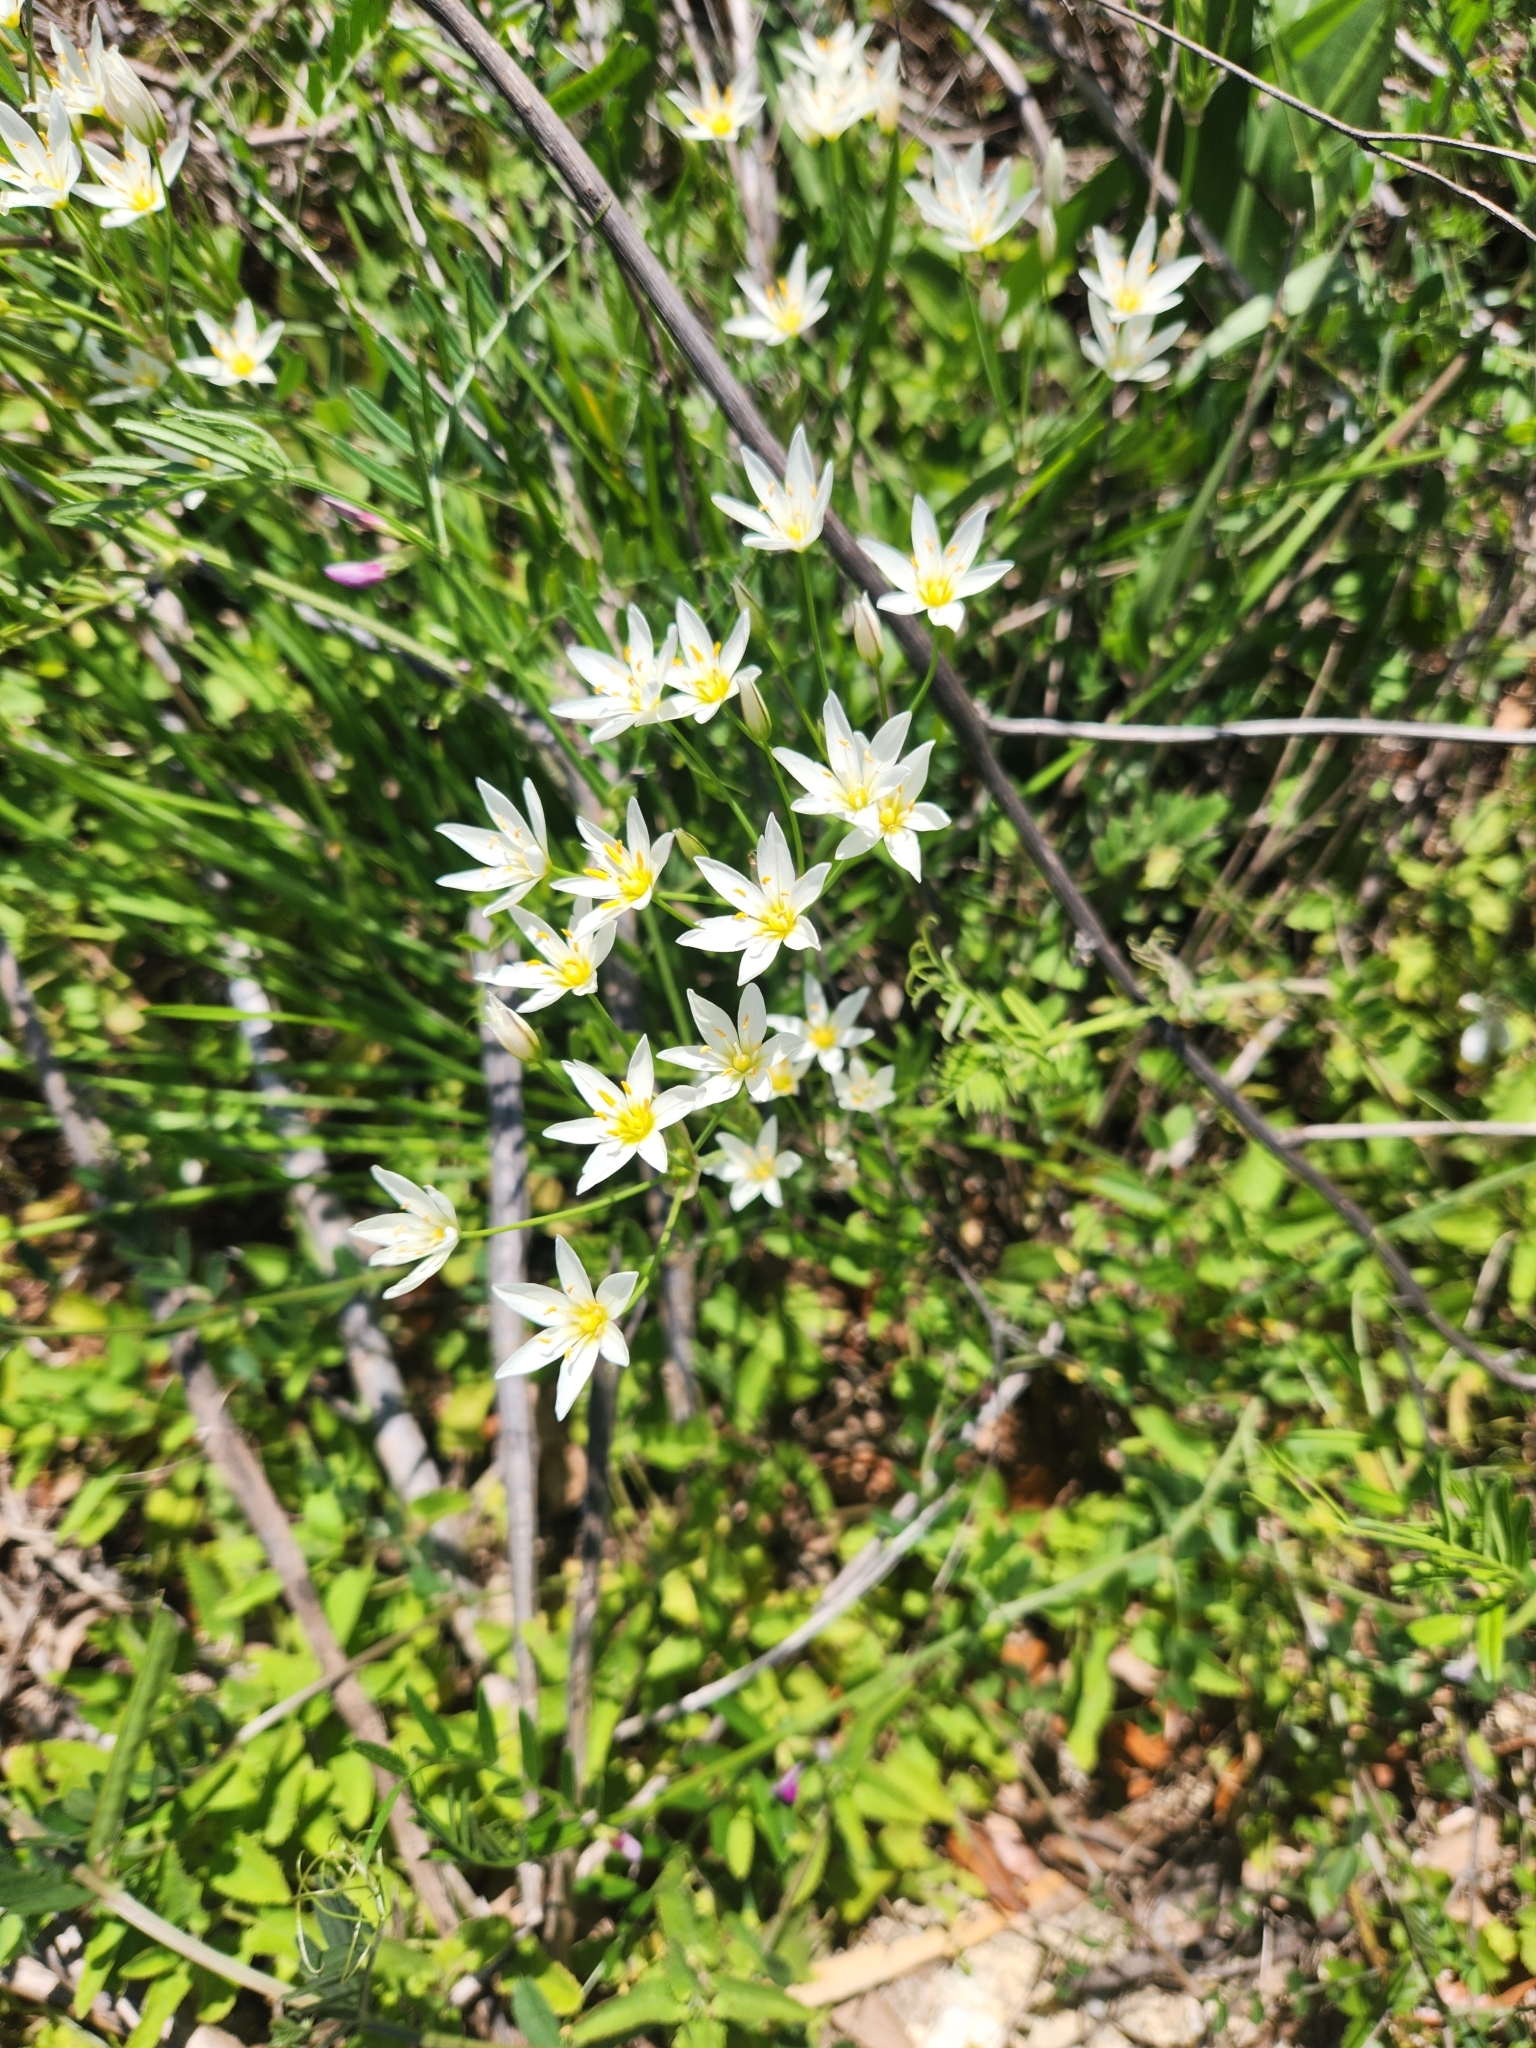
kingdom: Plantae
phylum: Tracheophyta
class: Liliopsida
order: Asparagales
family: Amaryllidaceae
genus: Nothoscordum
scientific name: Nothoscordum bivalve
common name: Crow-poison
